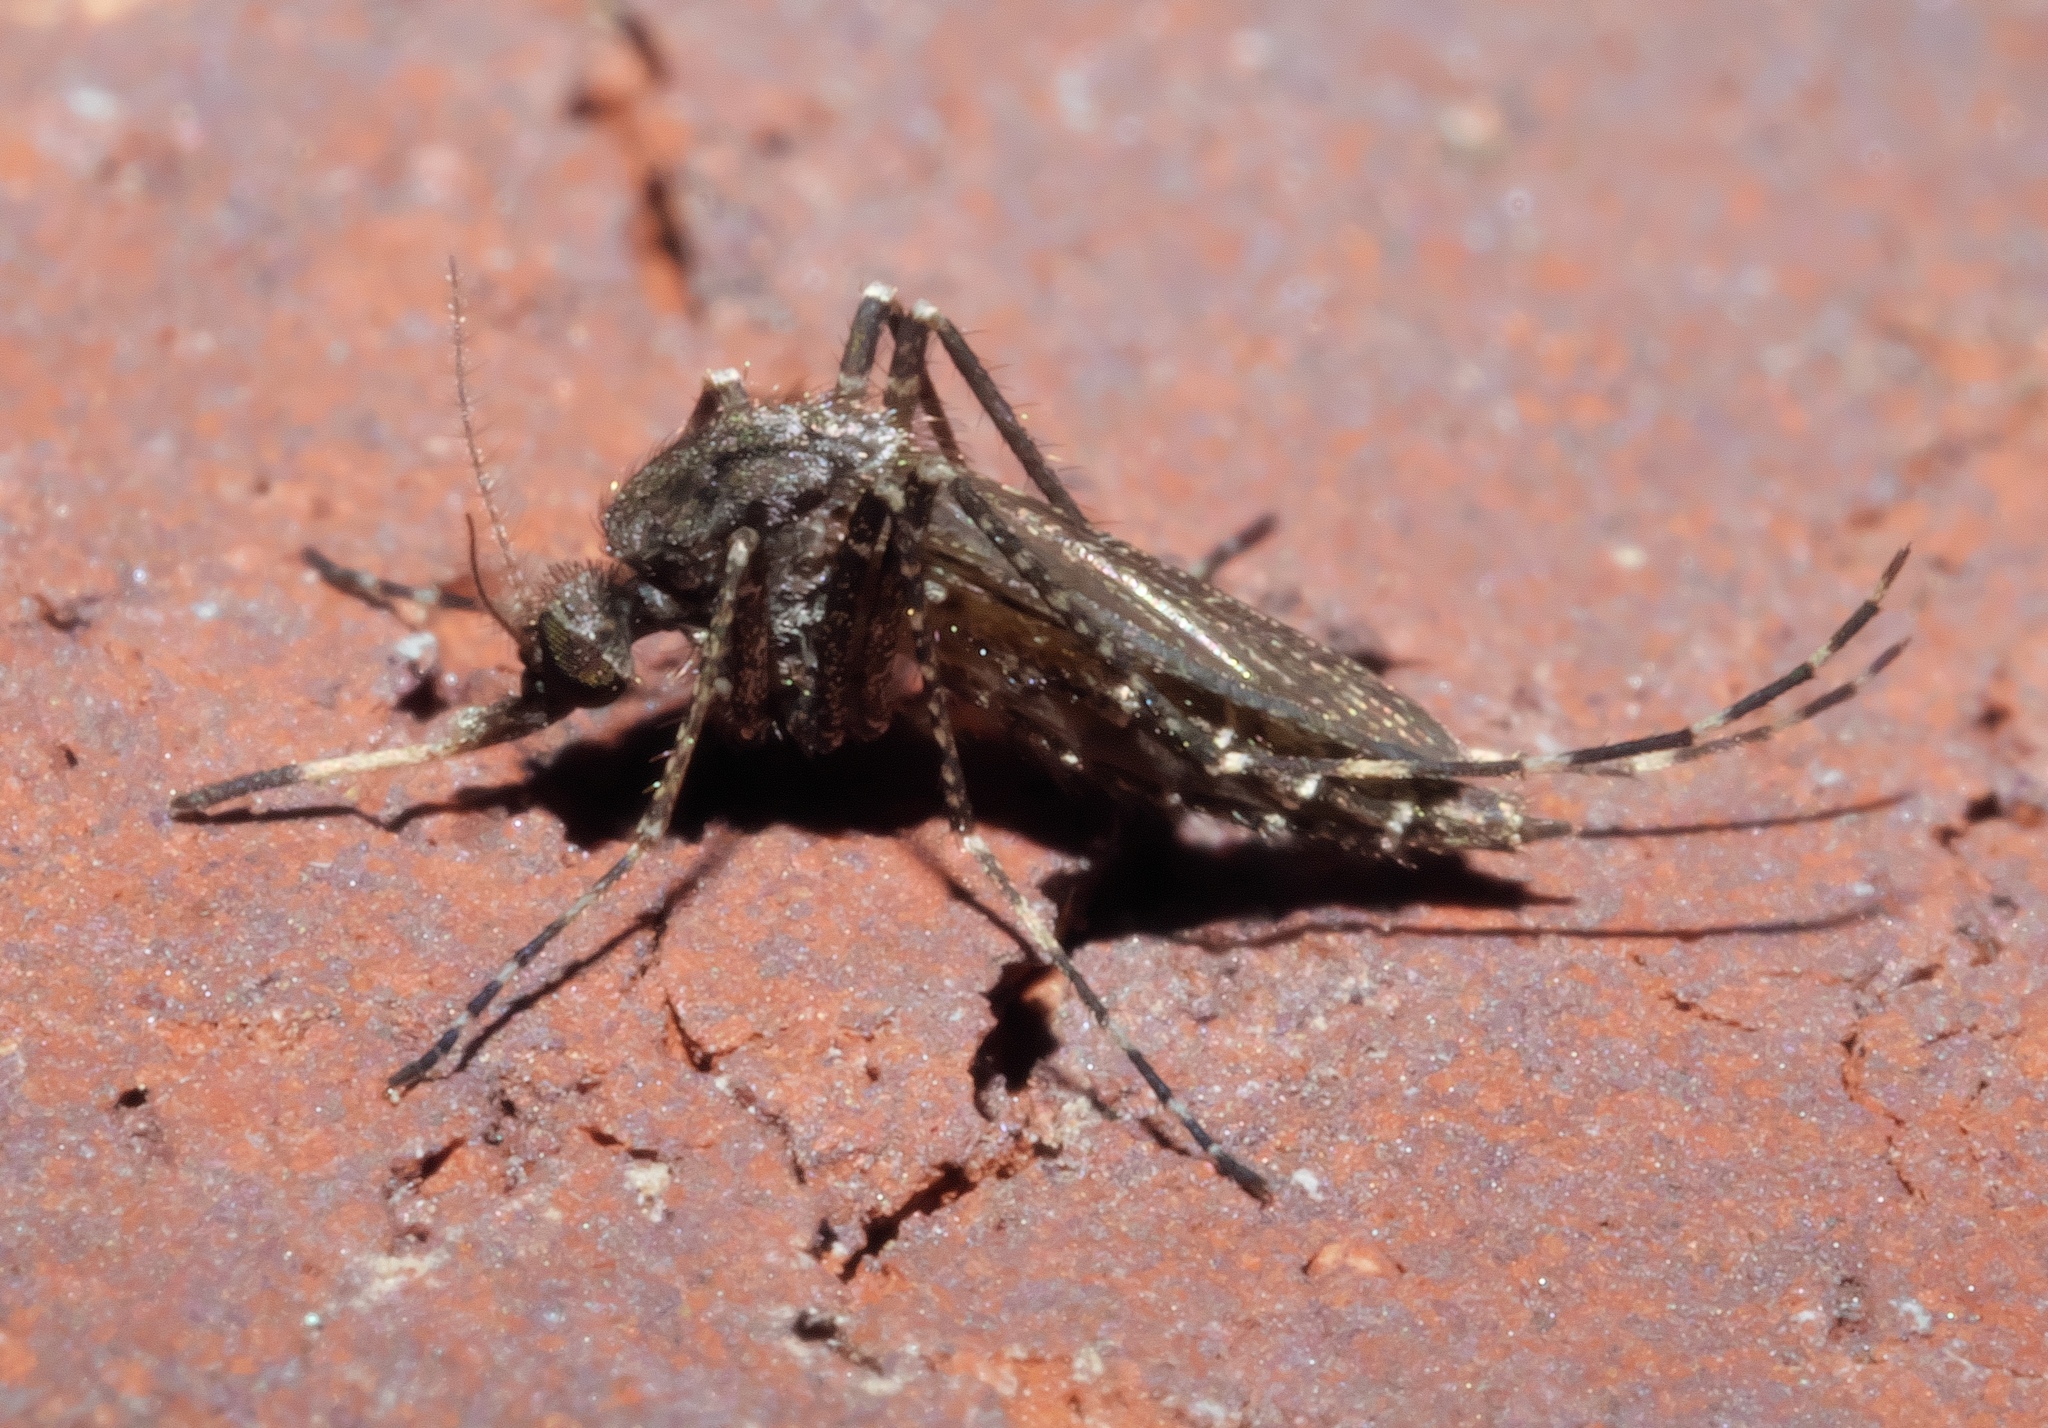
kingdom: Animalia
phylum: Arthropoda
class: Insecta
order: Diptera
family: Culicidae
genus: Psorophora
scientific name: Psorophora columbiae
